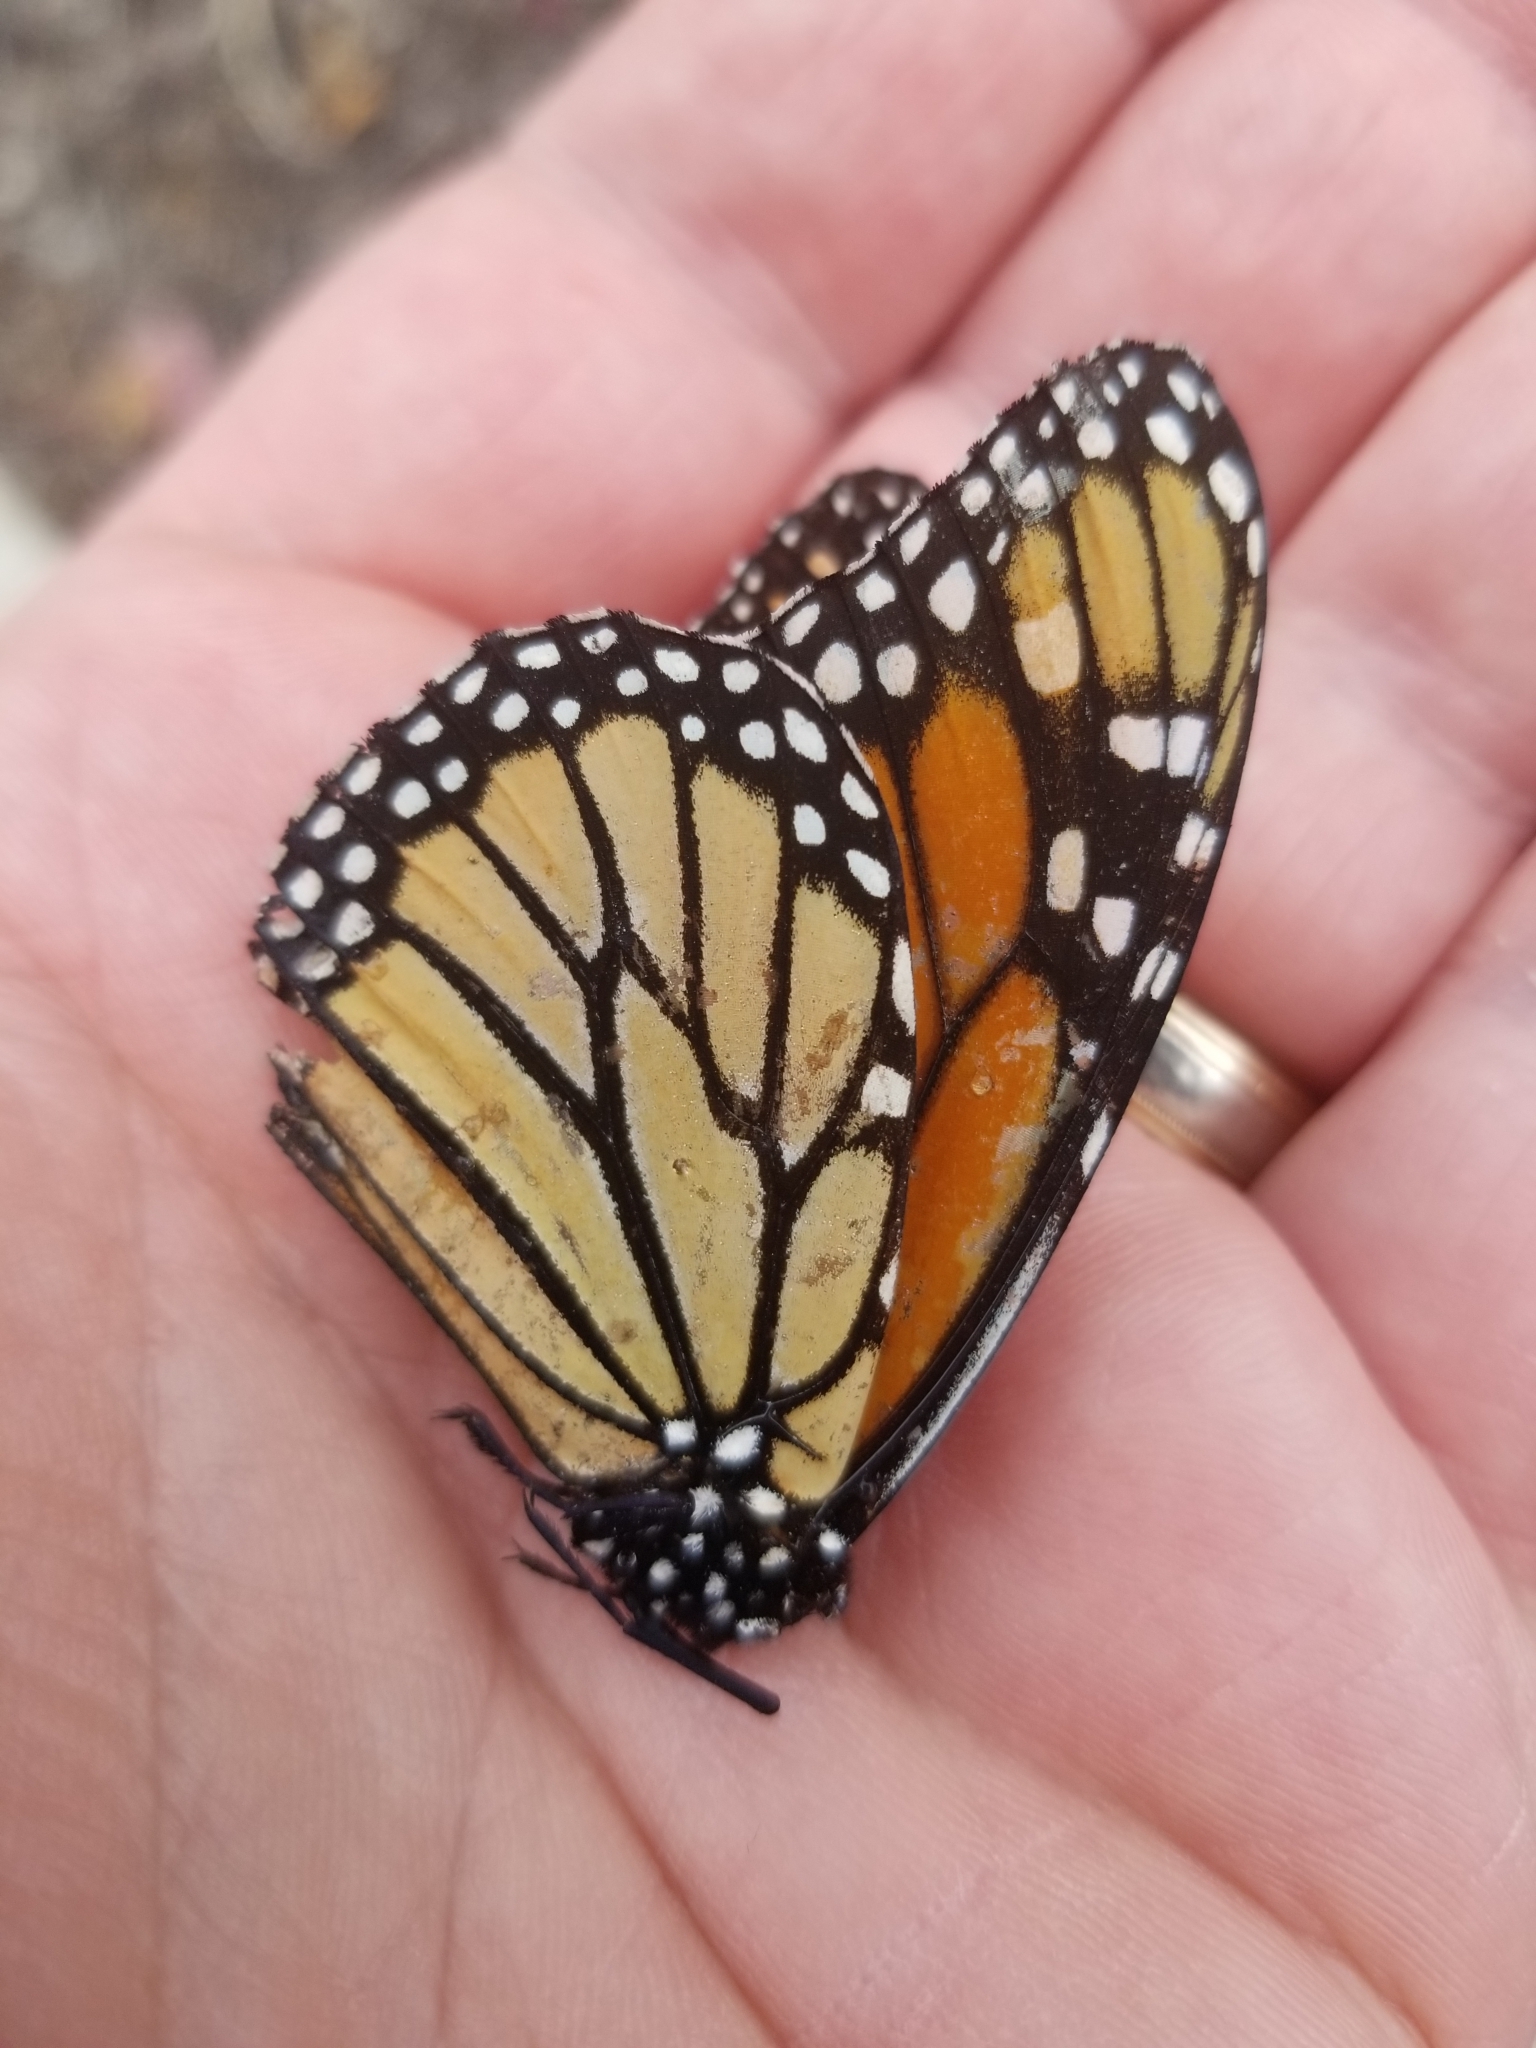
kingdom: Animalia
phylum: Arthropoda
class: Insecta
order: Lepidoptera
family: Nymphalidae
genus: Danaus
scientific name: Danaus plexippus
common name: Monarch
